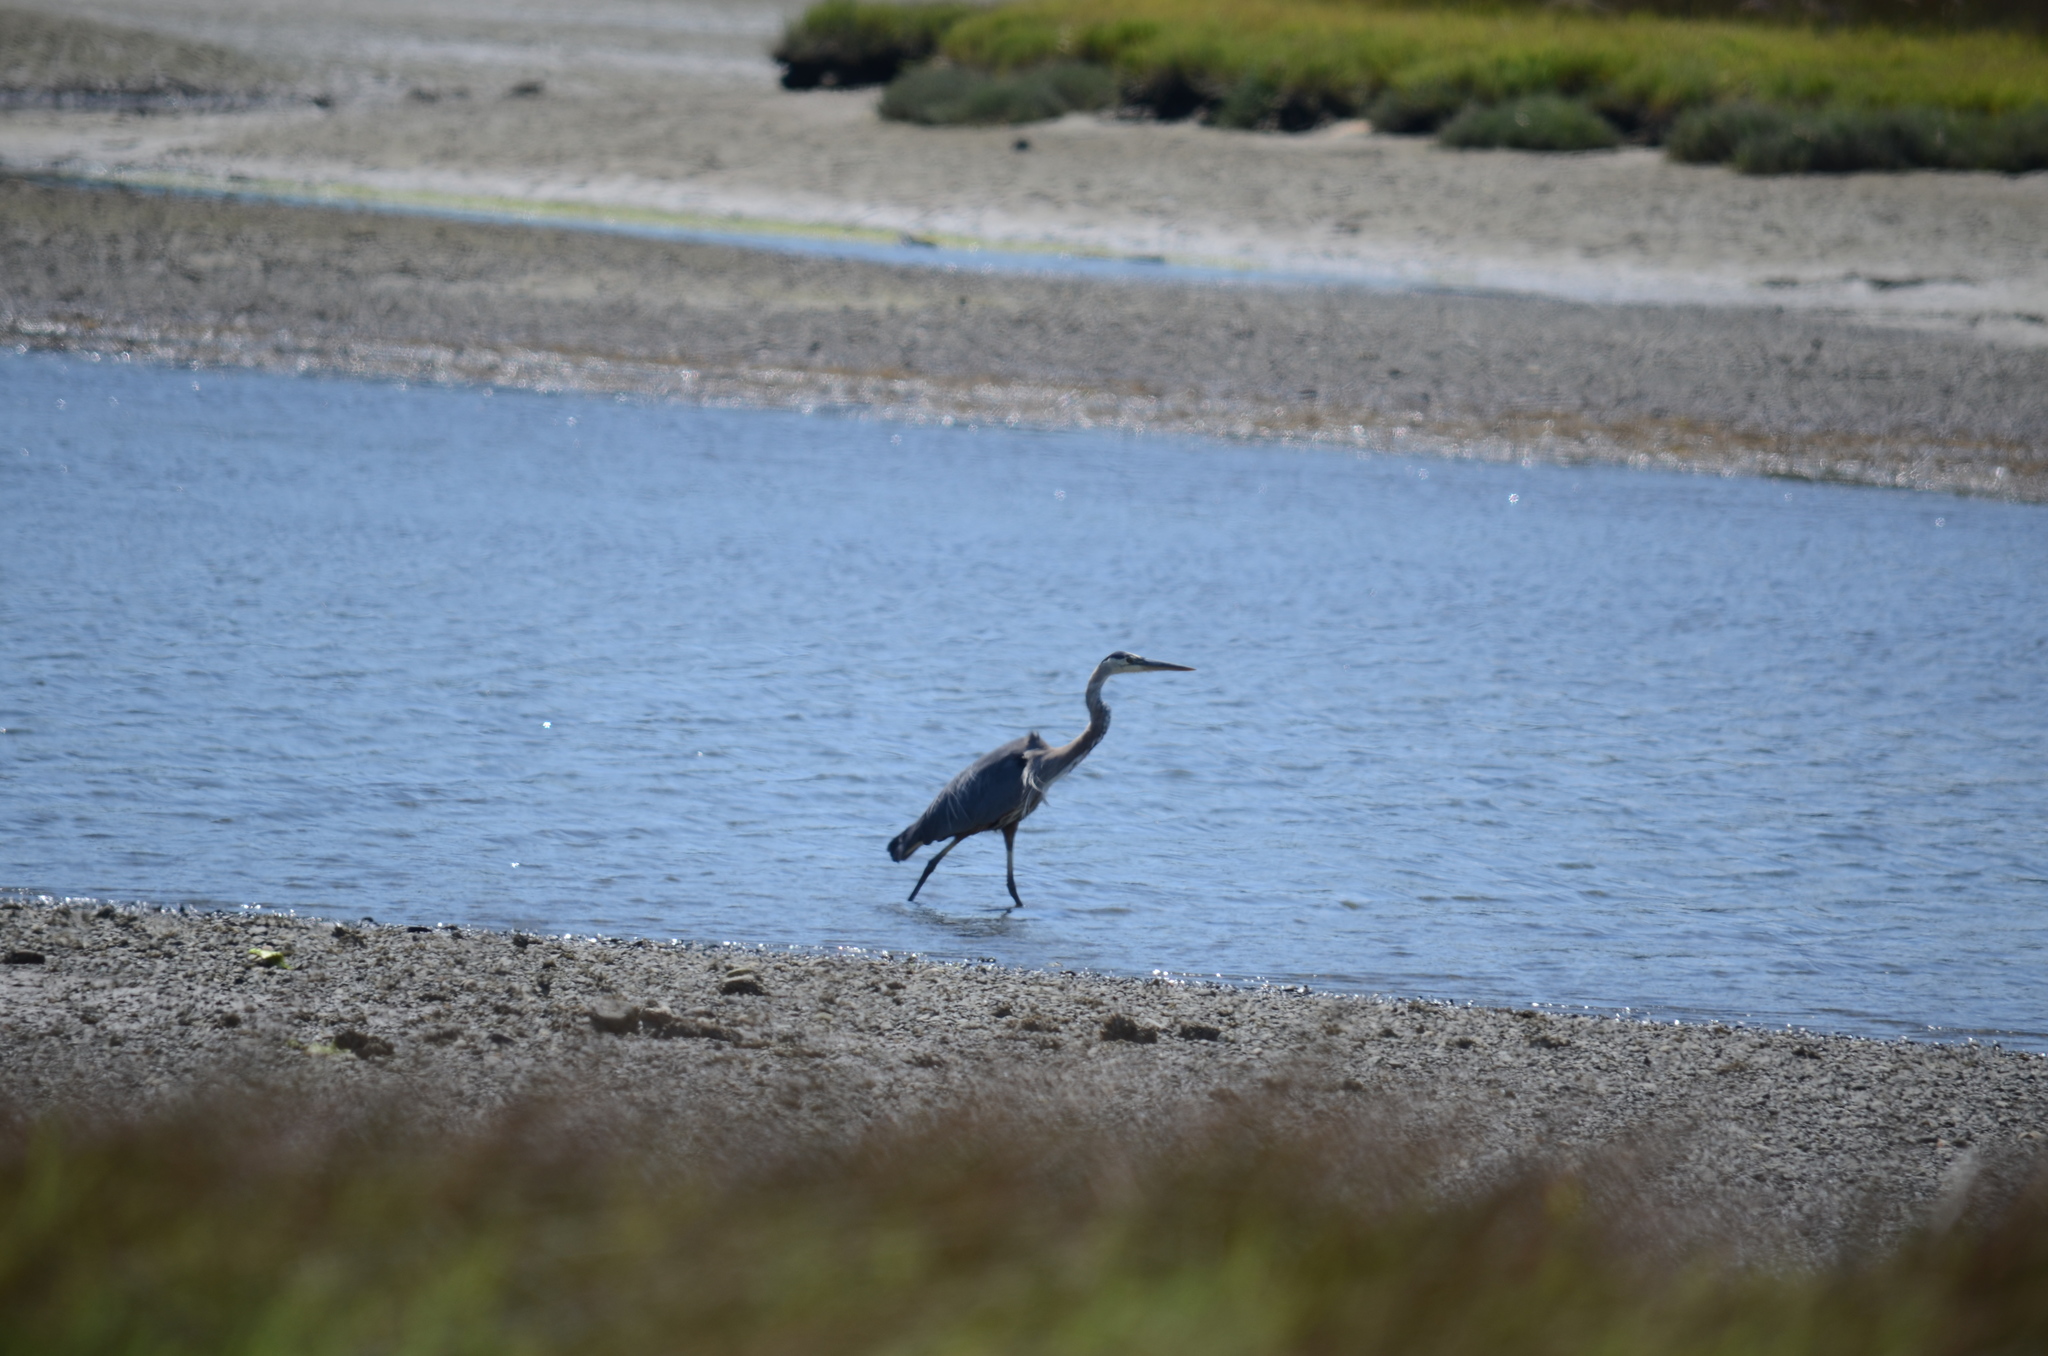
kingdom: Animalia
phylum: Chordata
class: Aves
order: Pelecaniformes
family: Ardeidae
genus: Ardea
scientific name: Ardea herodias
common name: Great blue heron
